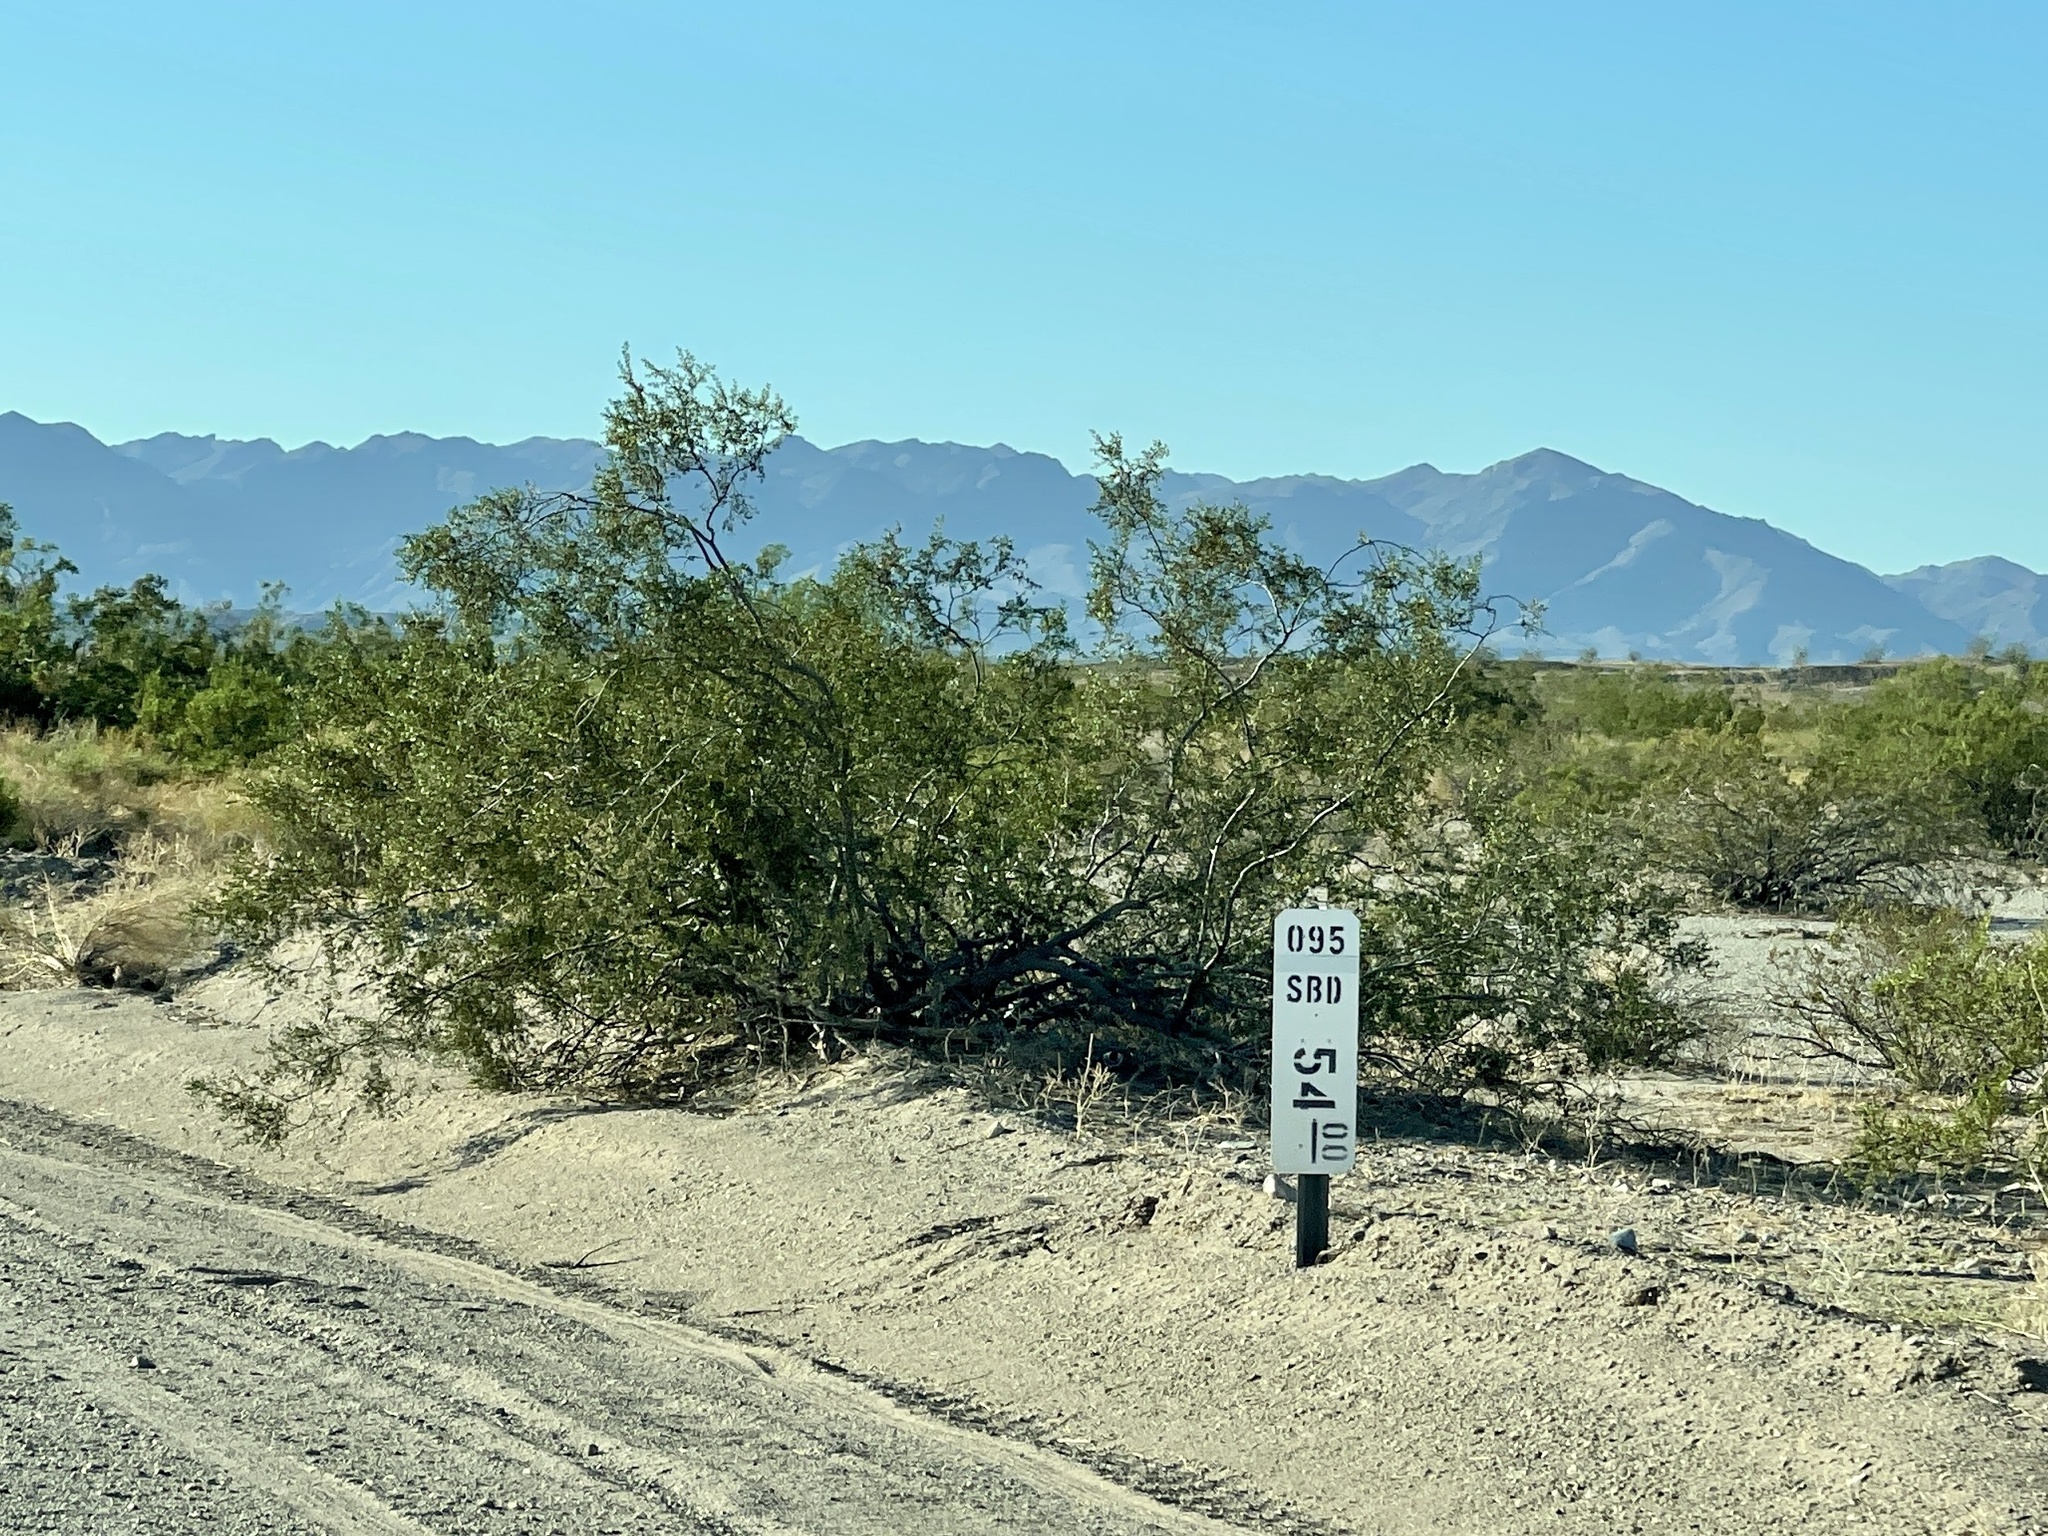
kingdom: Plantae
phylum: Tracheophyta
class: Magnoliopsida
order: Zygophyllales
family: Zygophyllaceae
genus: Larrea
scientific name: Larrea tridentata
